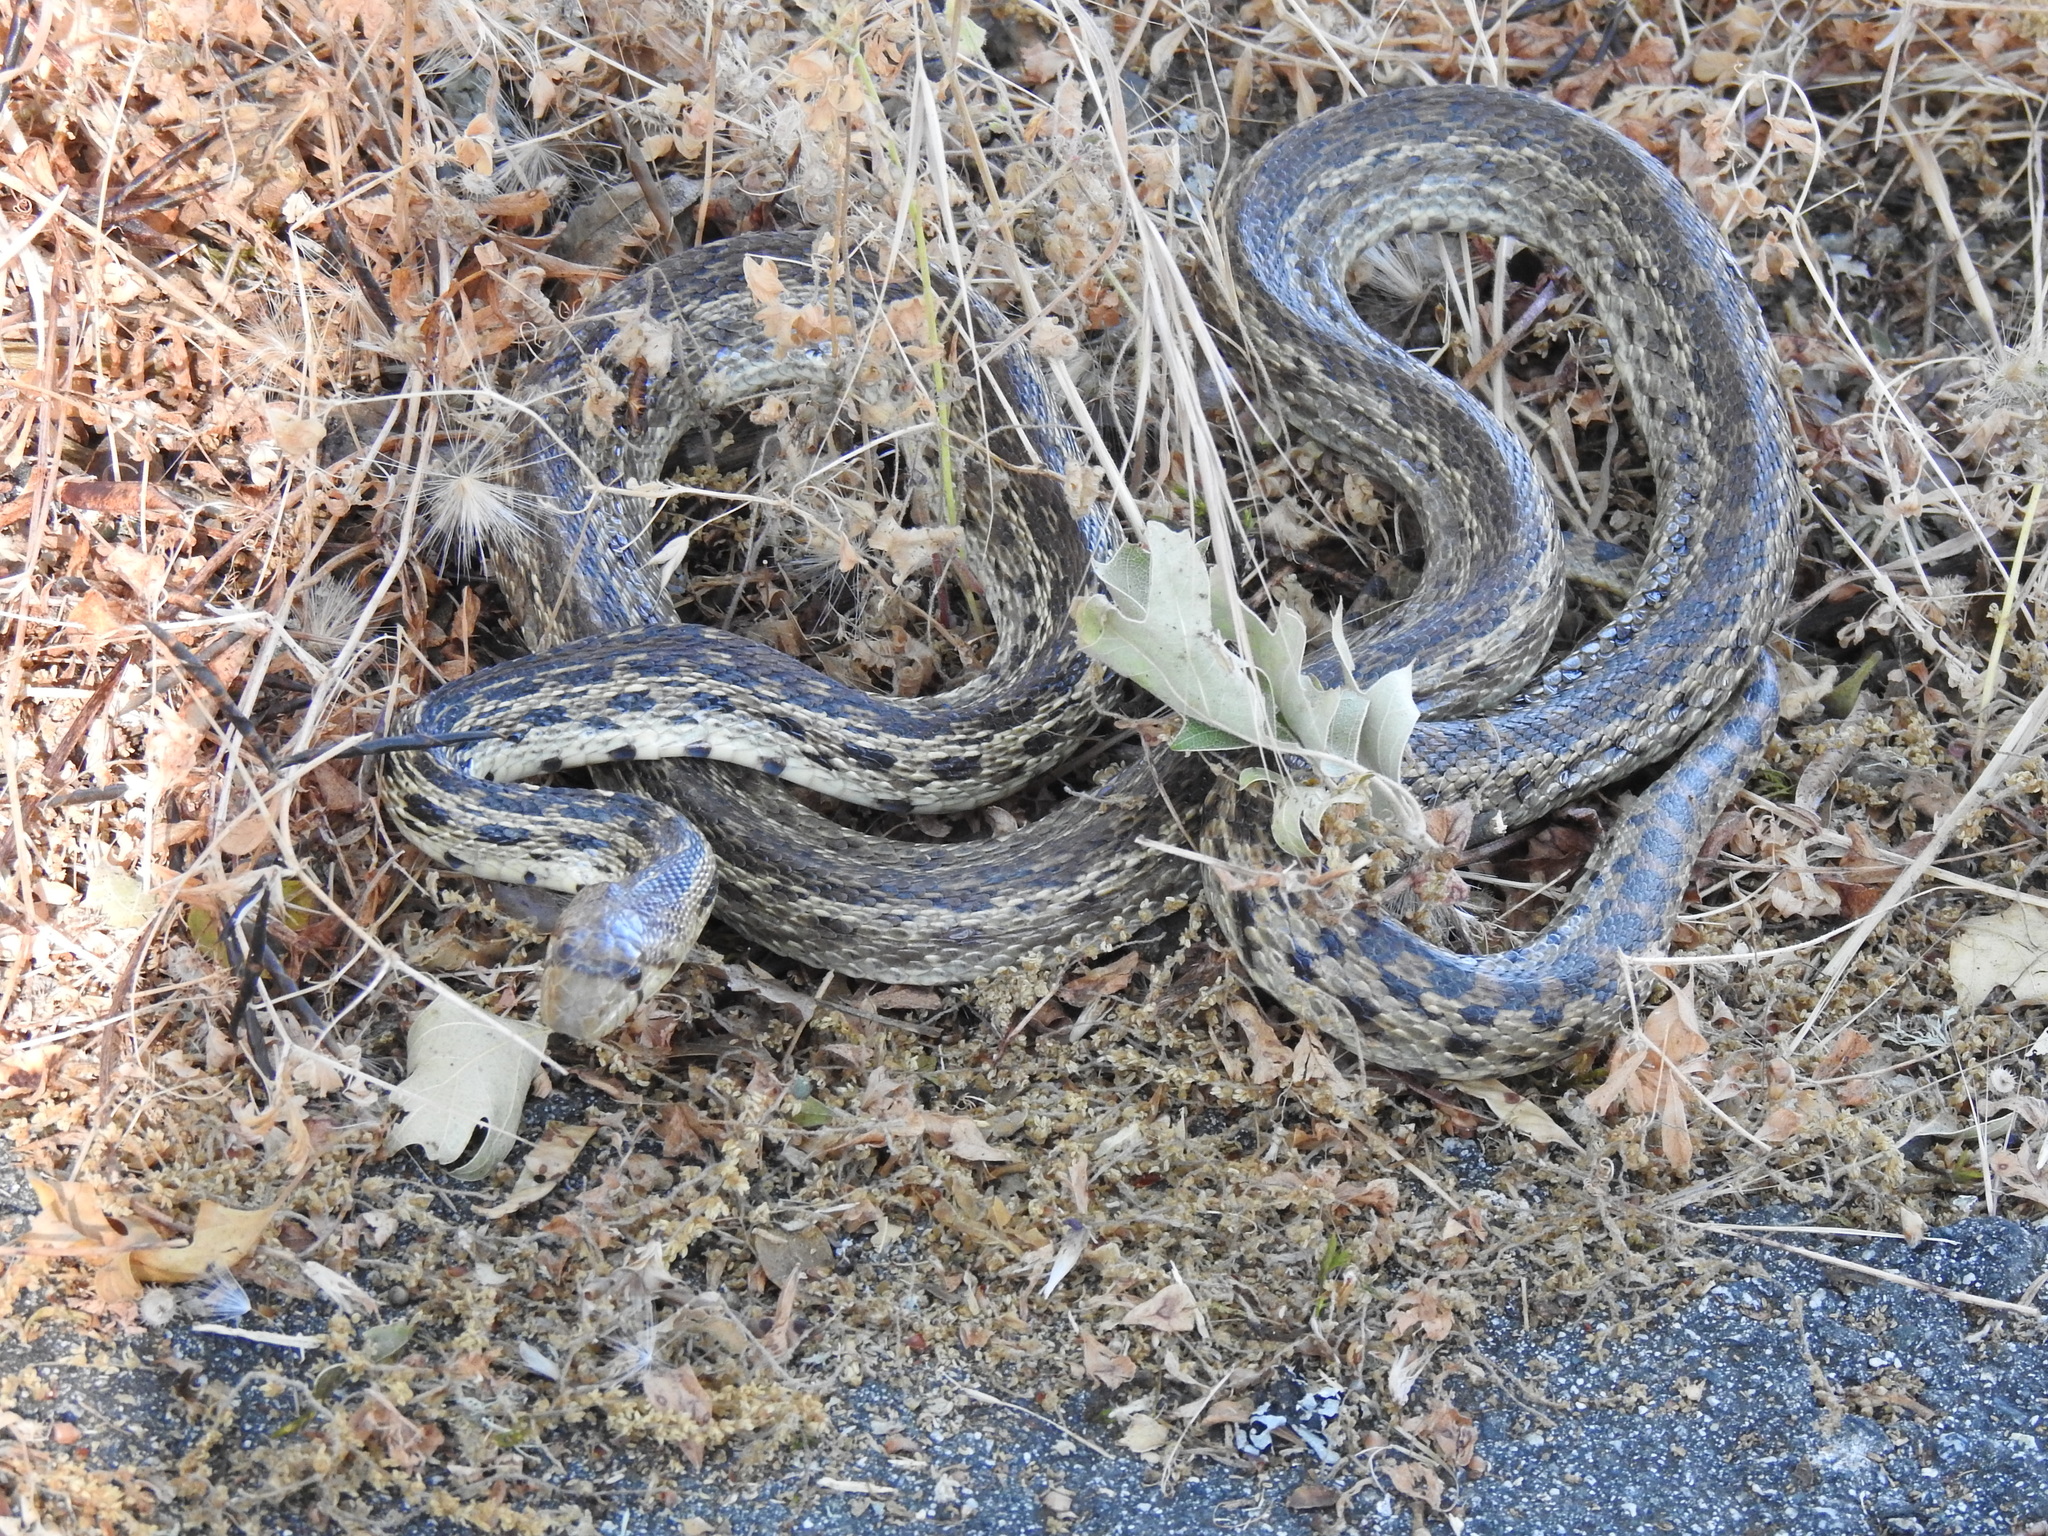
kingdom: Animalia
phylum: Chordata
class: Squamata
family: Colubridae
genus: Pituophis
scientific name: Pituophis catenifer
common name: Gopher snake
